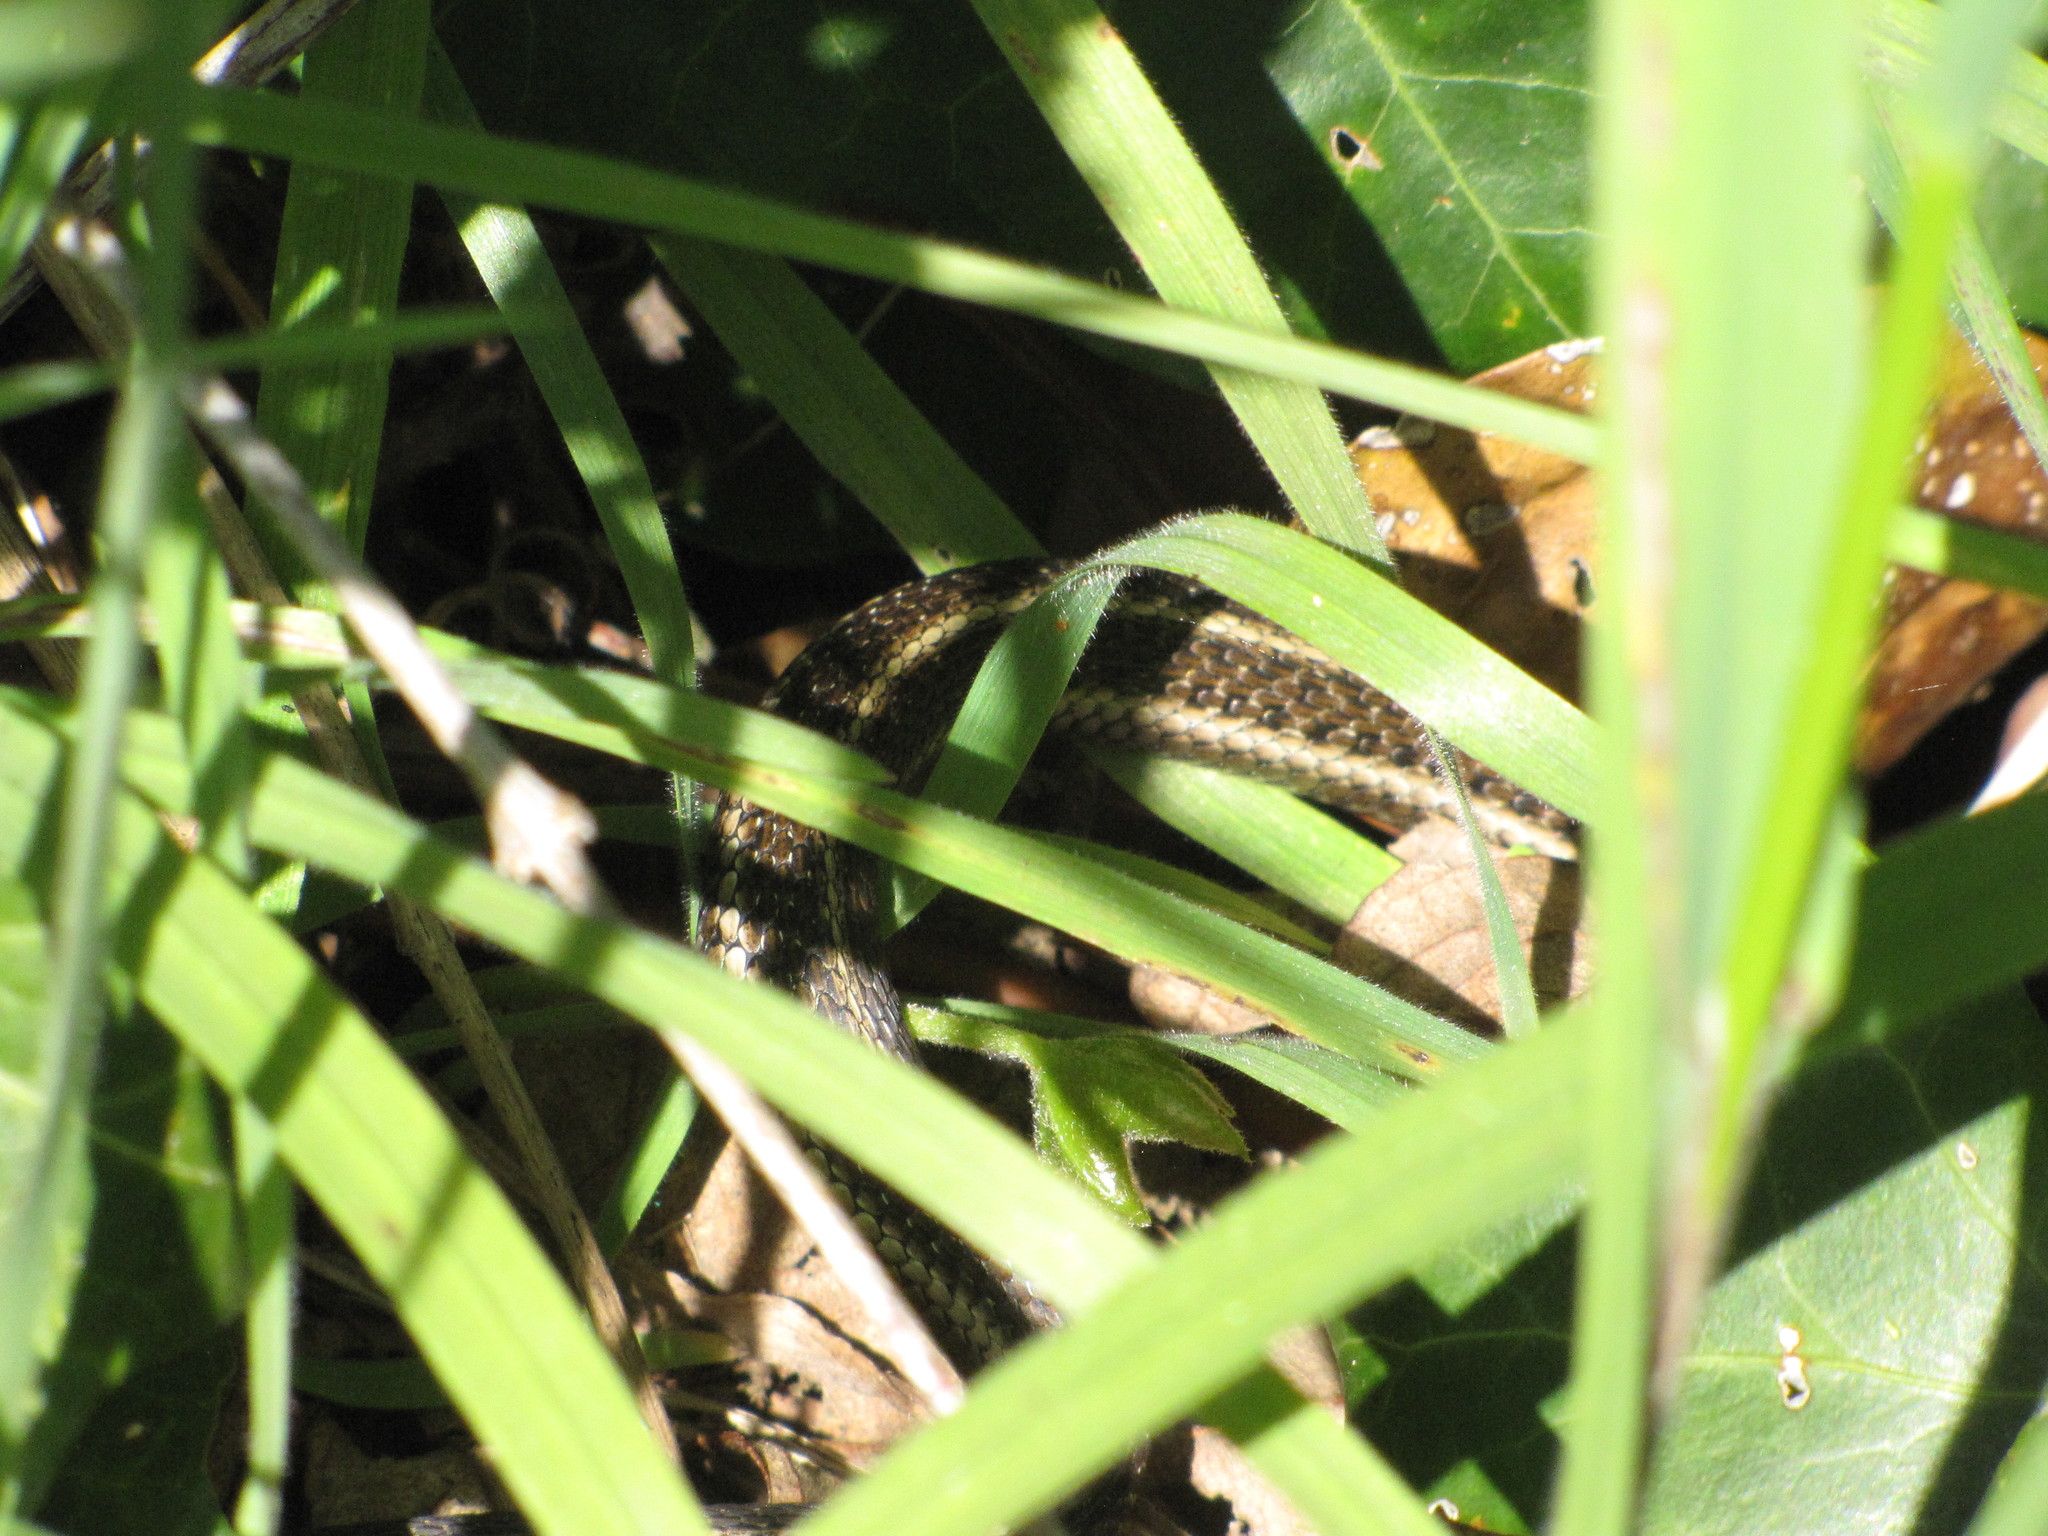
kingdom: Animalia
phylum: Chordata
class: Squamata
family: Colubridae
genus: Thamnophis
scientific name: Thamnophis ordinoides
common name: Northwestern garter snake
